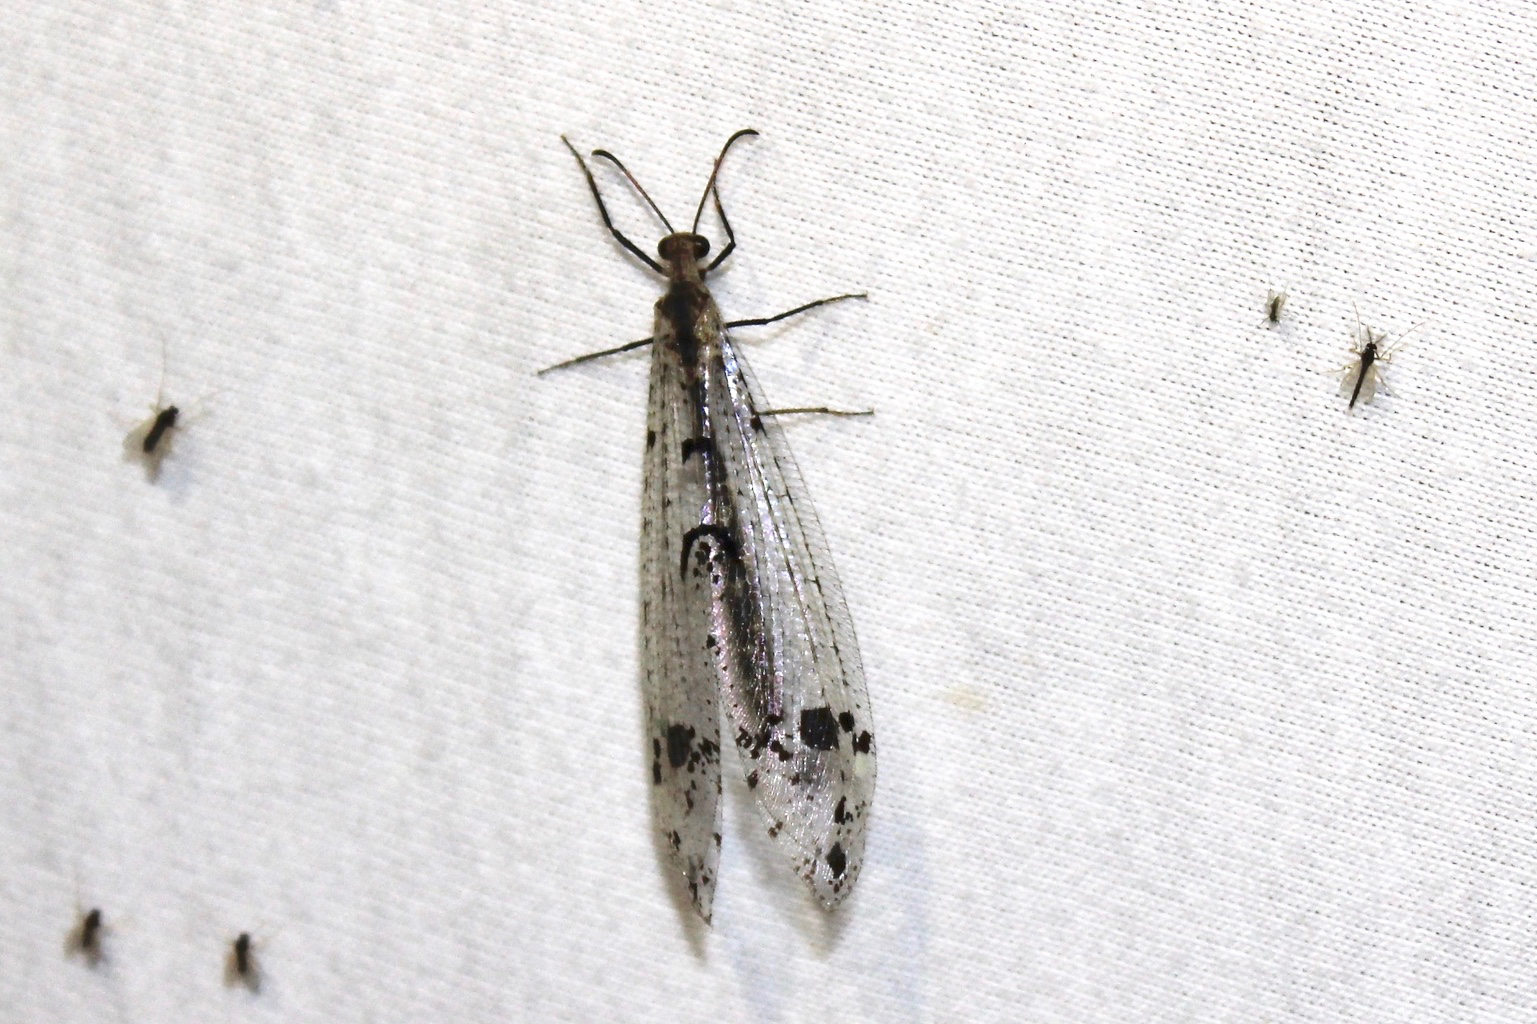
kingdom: Animalia
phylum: Arthropoda
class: Insecta
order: Neuroptera
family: Myrmeleontidae
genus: Dendroleon
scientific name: Dendroleon obsoletus
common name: Eastern spotted-winged antlion
